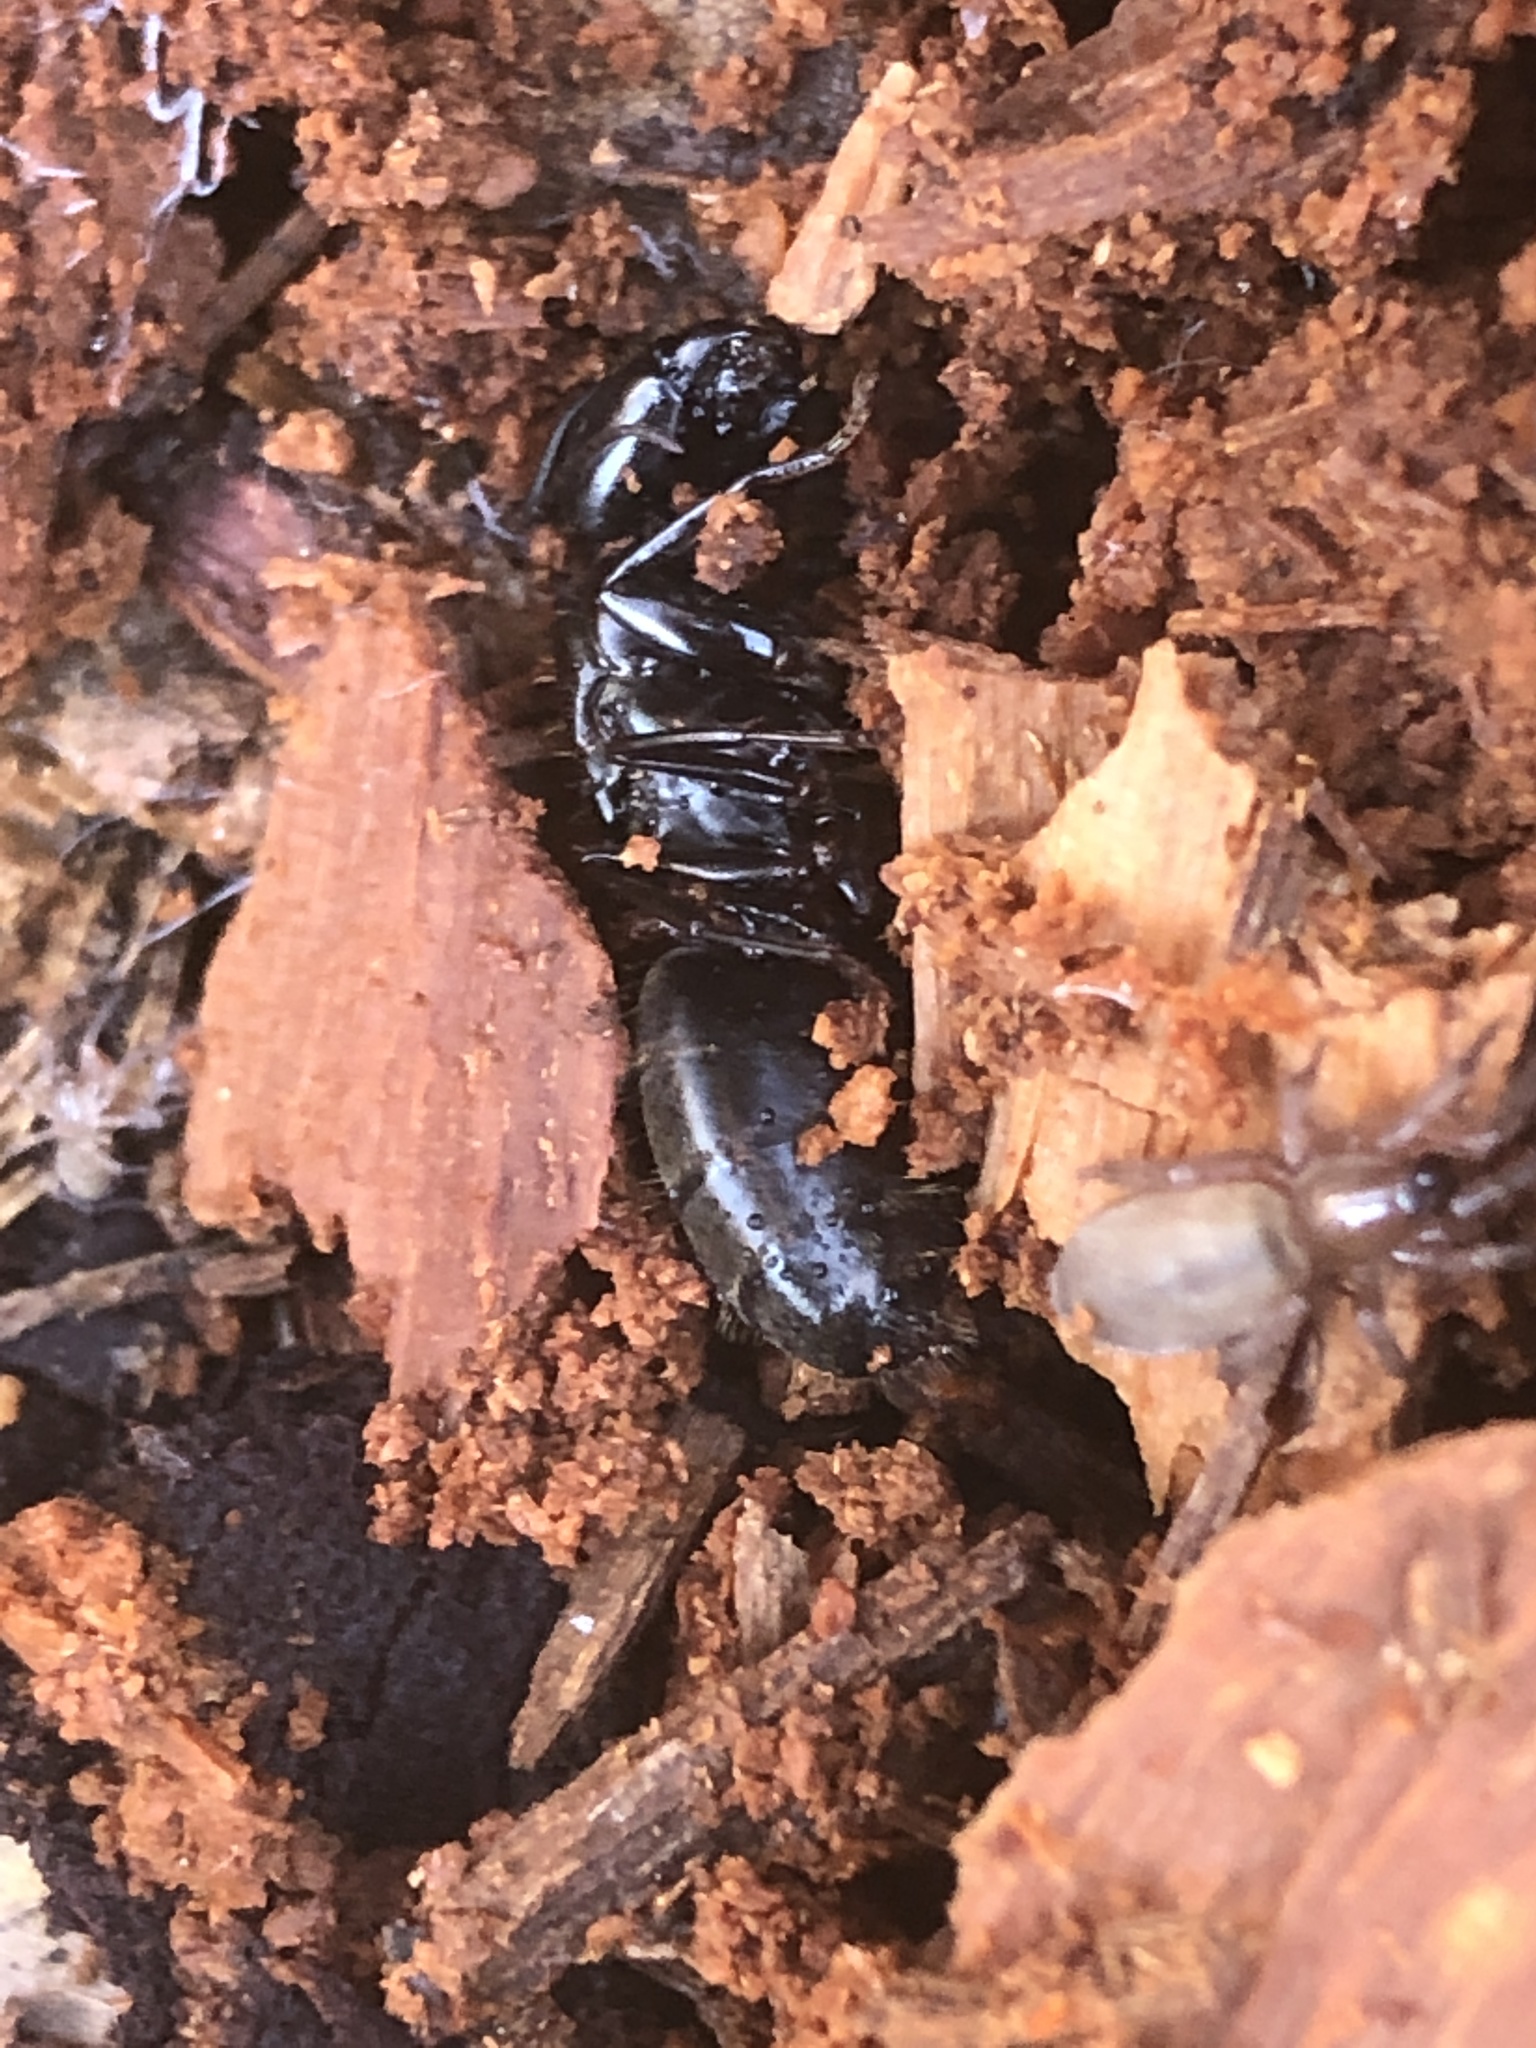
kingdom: Animalia
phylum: Arthropoda
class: Insecta
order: Hymenoptera
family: Formicidae
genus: Camponotus
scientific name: Camponotus pennsylvanicus
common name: Black carpenter ant
